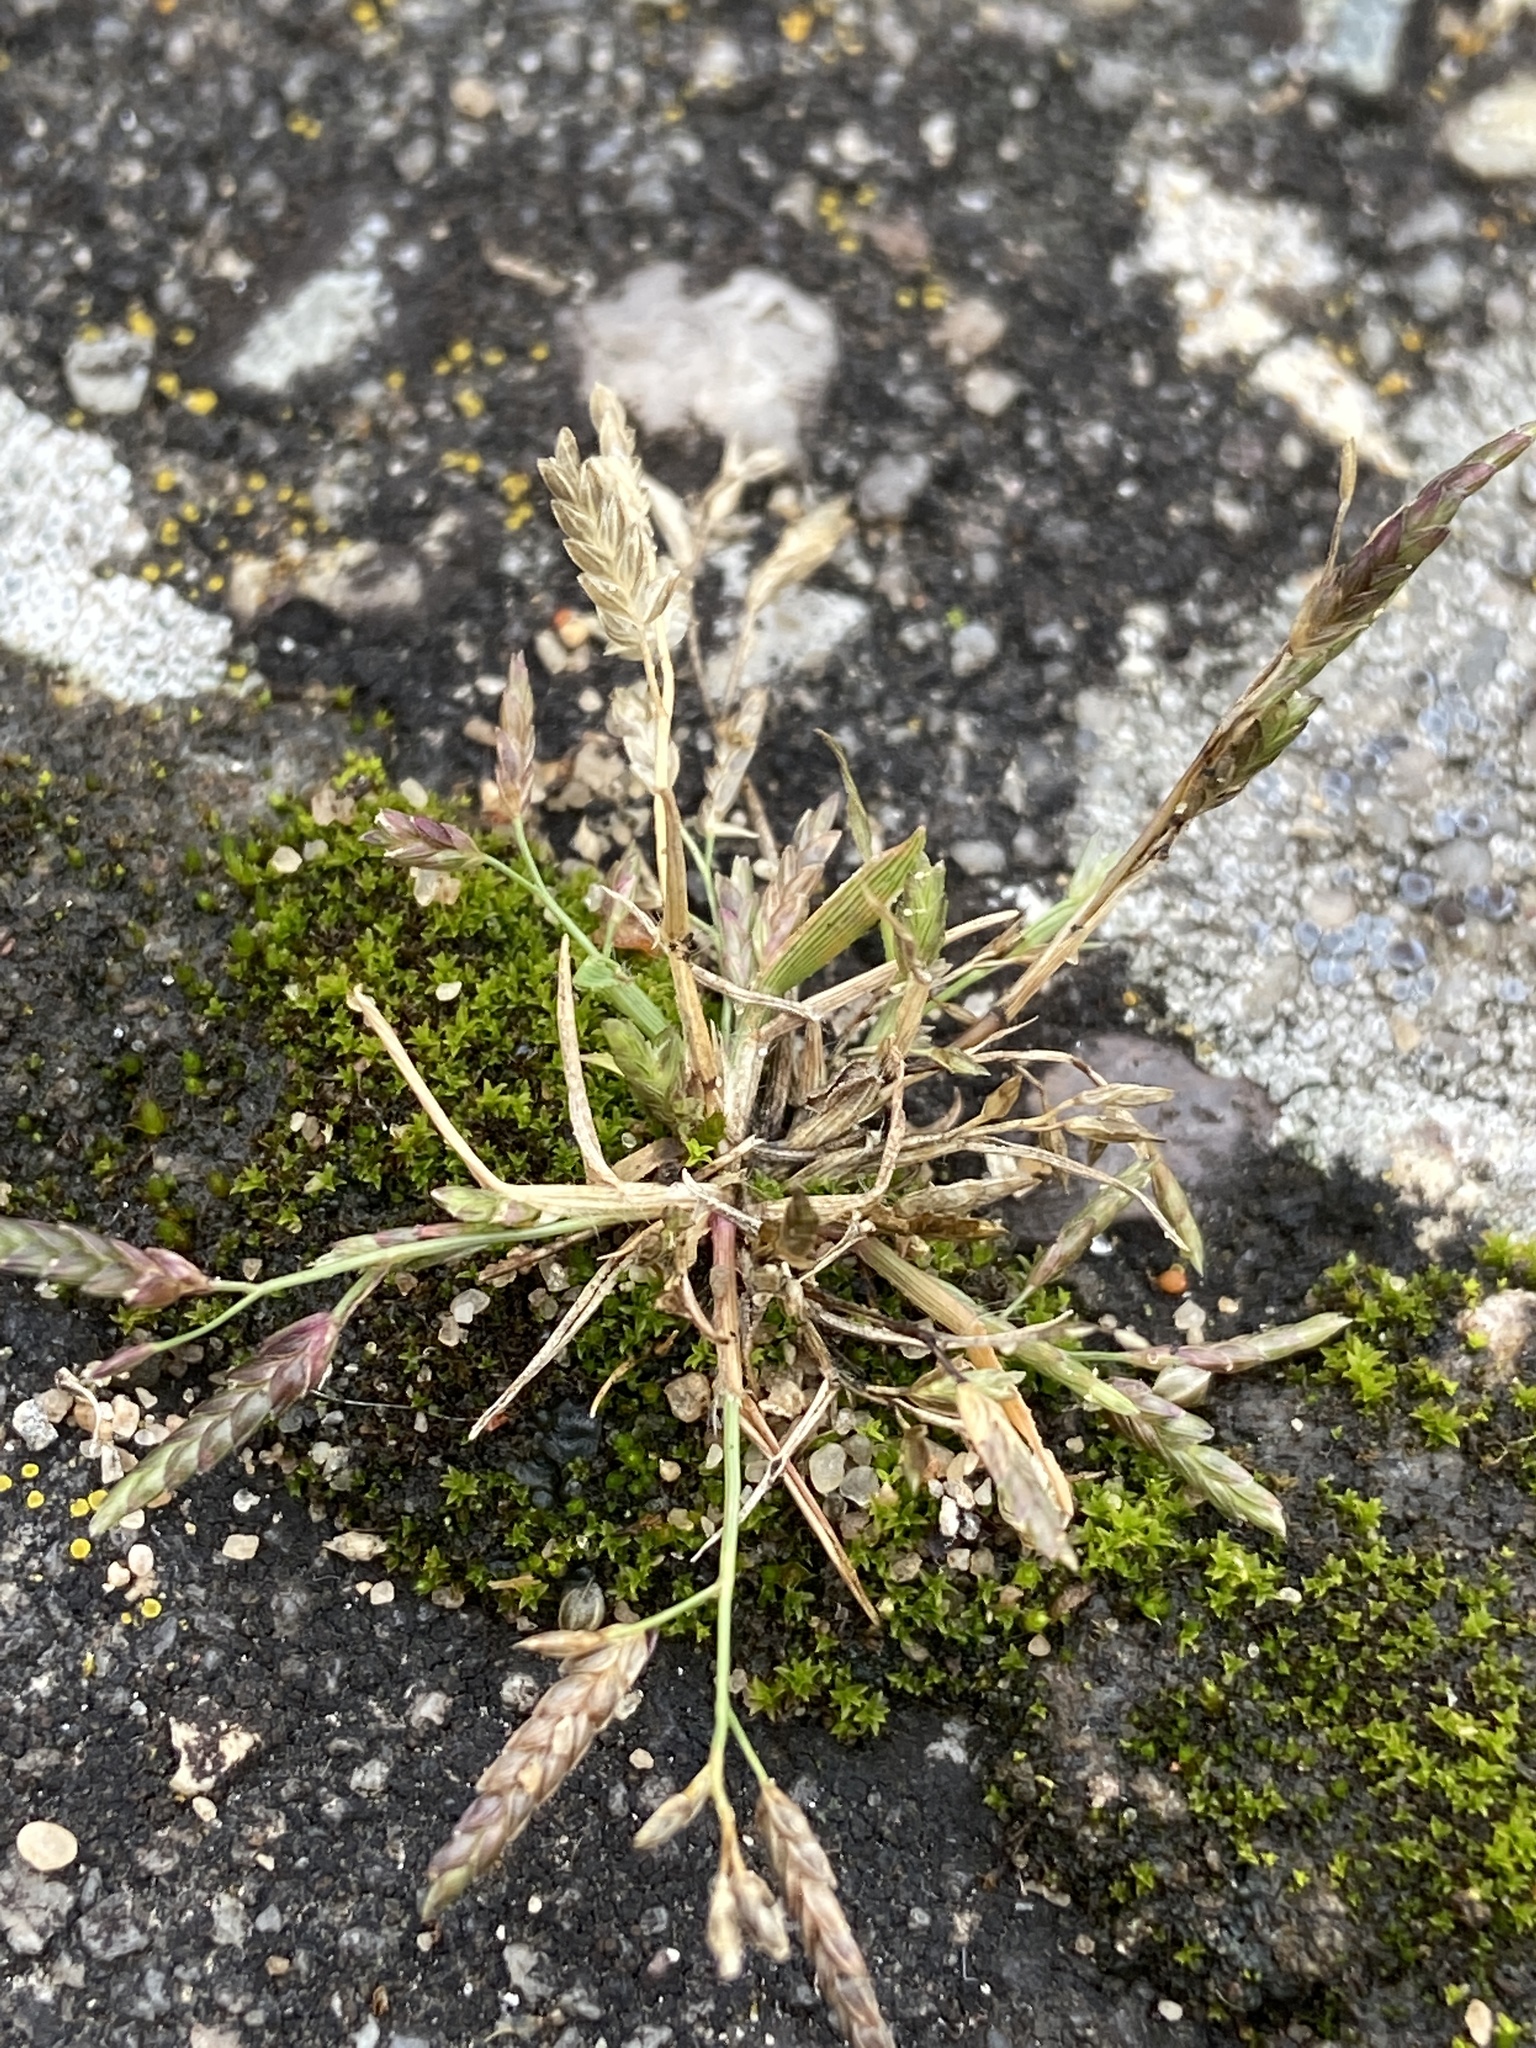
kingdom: Plantae
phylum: Tracheophyta
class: Liliopsida
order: Poales
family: Poaceae
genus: Eragrostis
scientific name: Eragrostis minor
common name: Small love-grass
